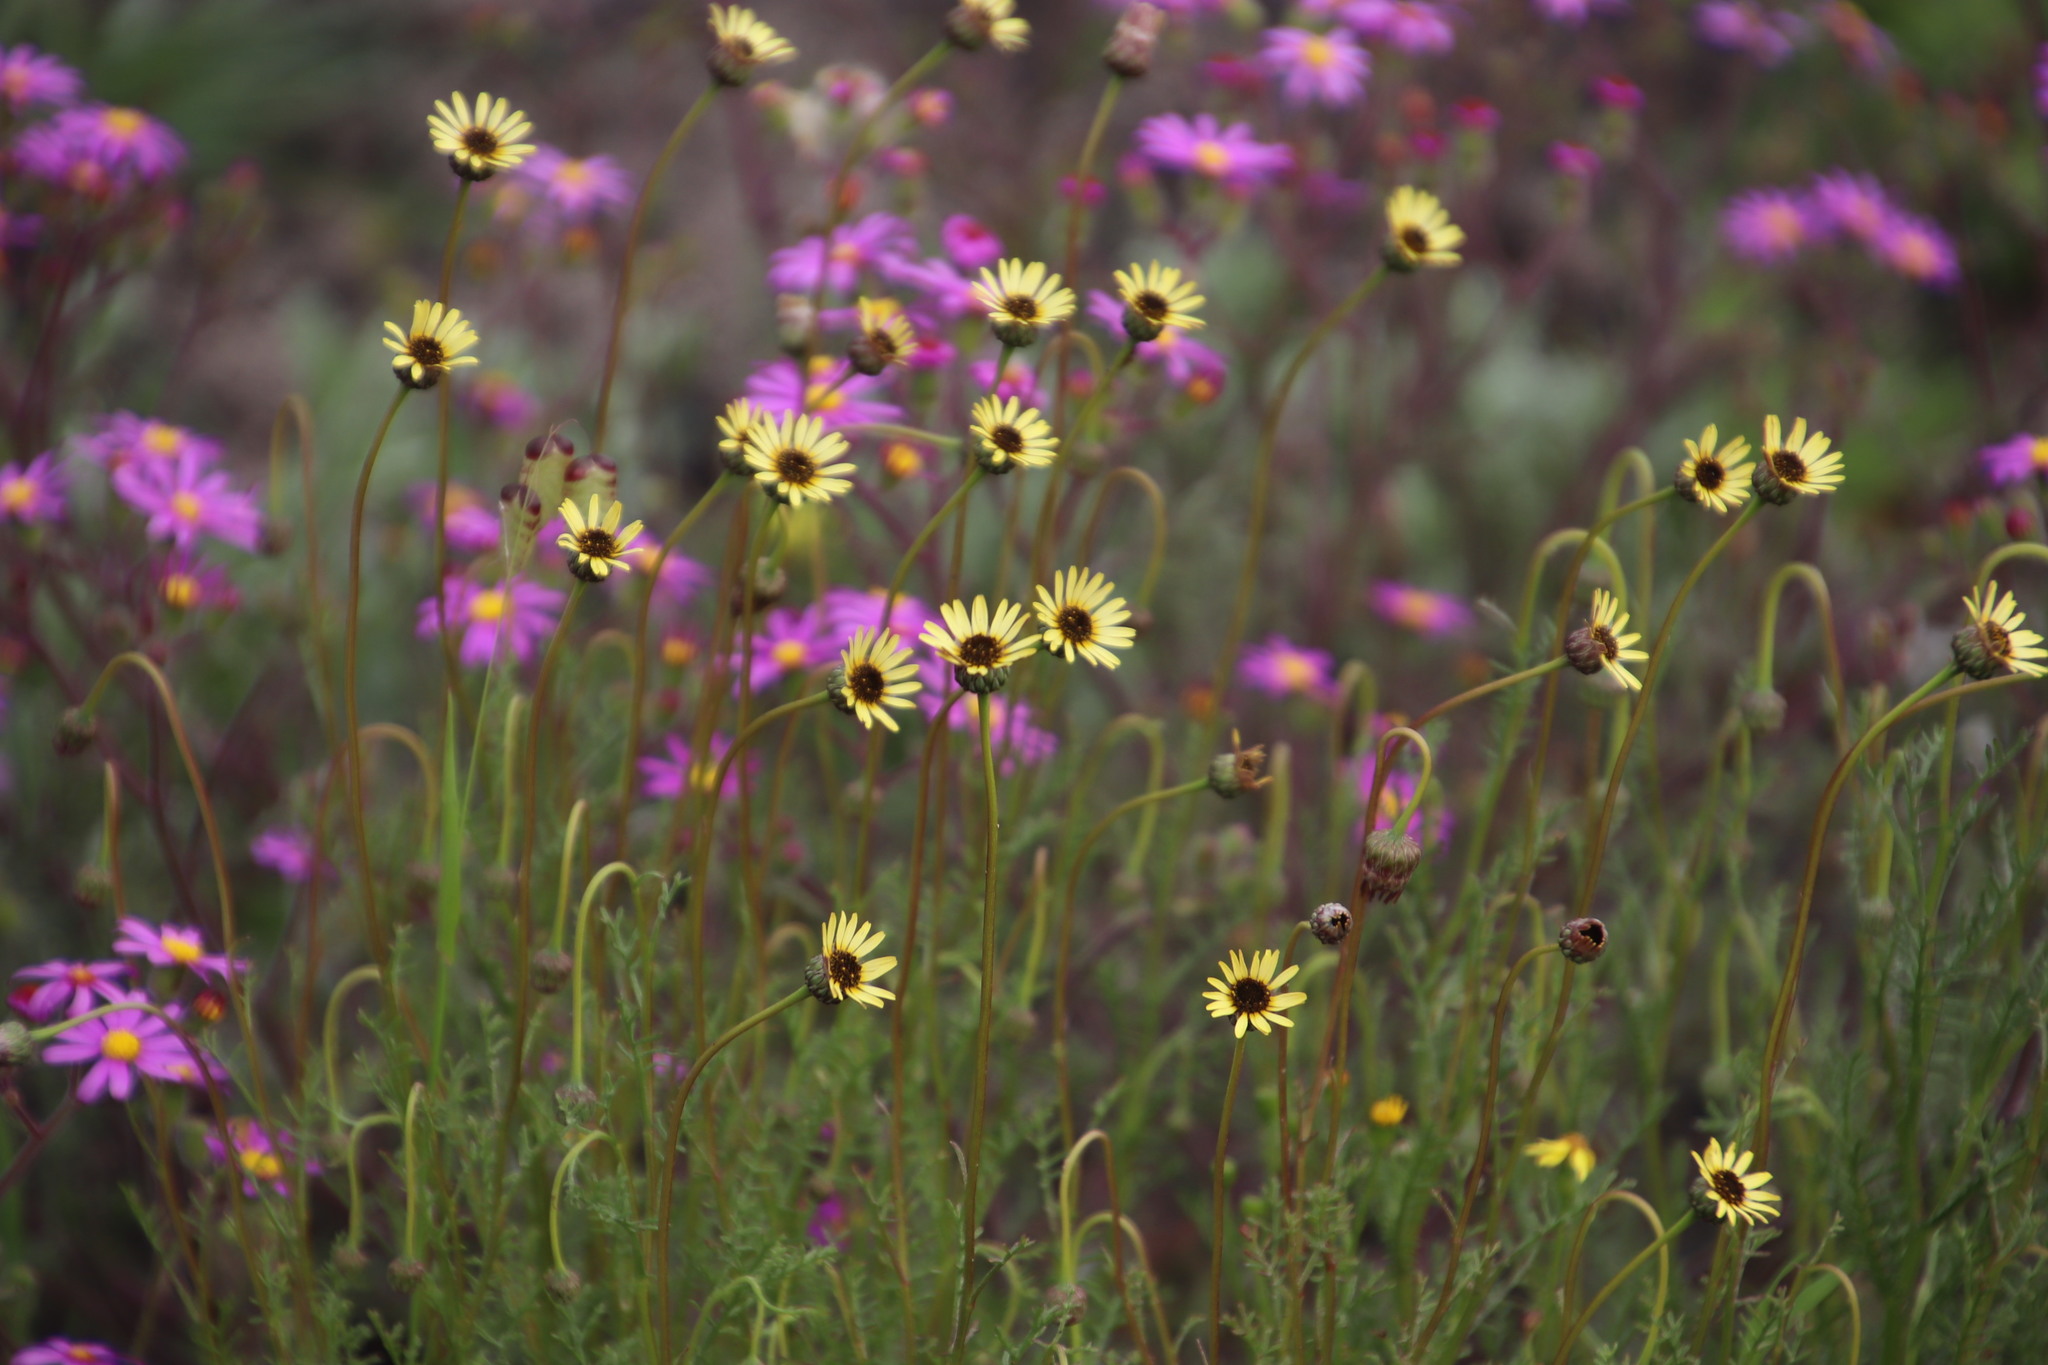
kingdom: Plantae
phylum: Tracheophyta
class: Magnoliopsida
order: Asterales
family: Asteraceae
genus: Ursinia
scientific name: Ursinia anthemoides
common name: Ursinia
